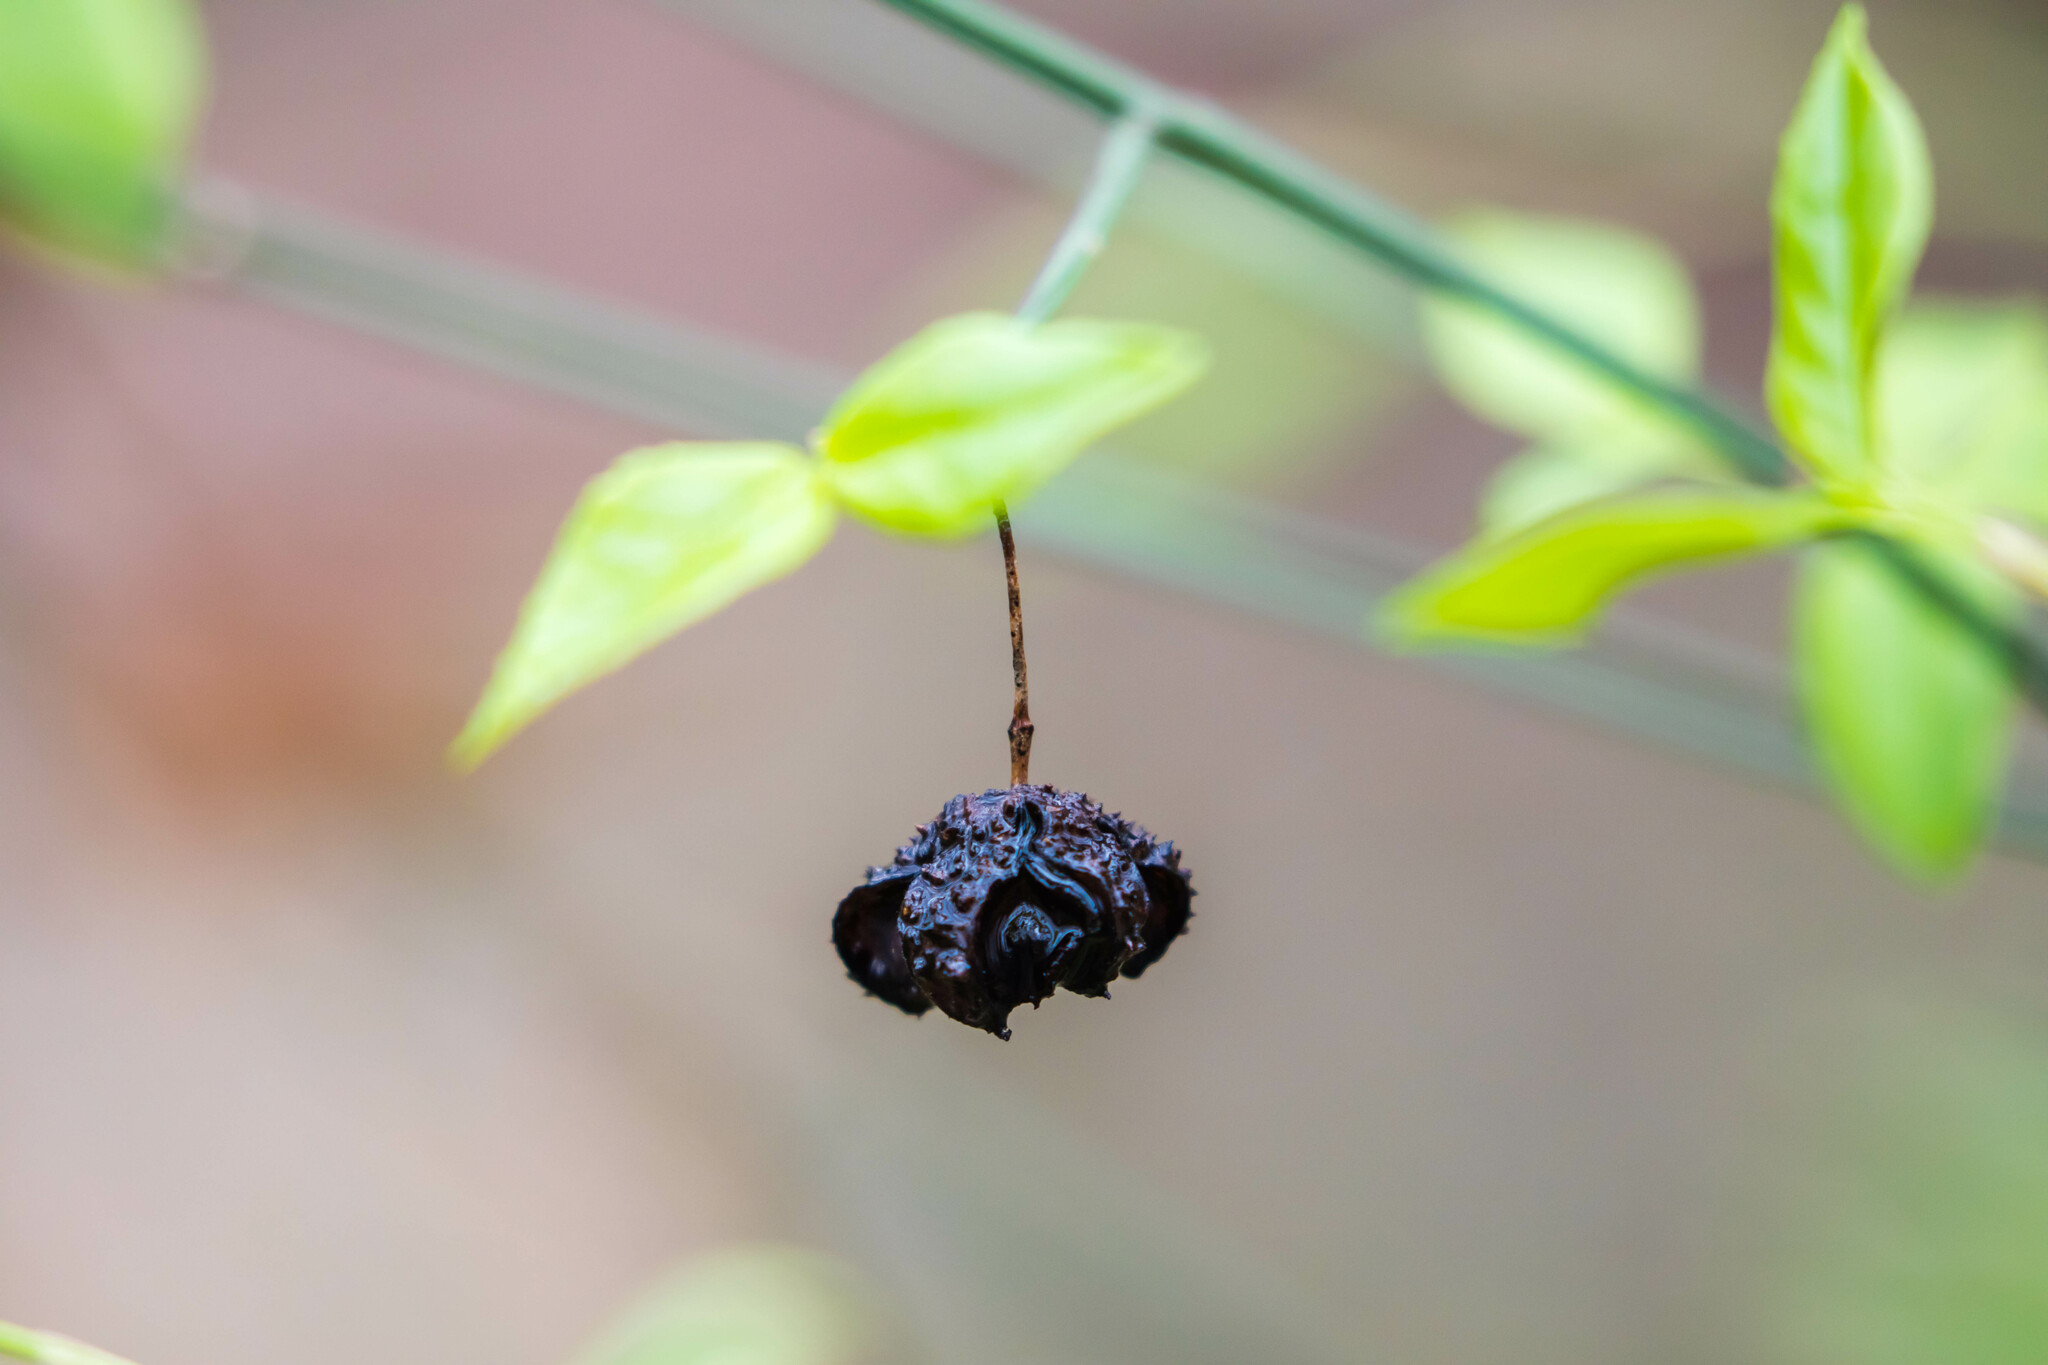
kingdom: Plantae
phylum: Tracheophyta
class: Magnoliopsida
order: Celastrales
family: Celastraceae
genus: Euonymus
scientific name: Euonymus americanus
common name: Bursting-heart
